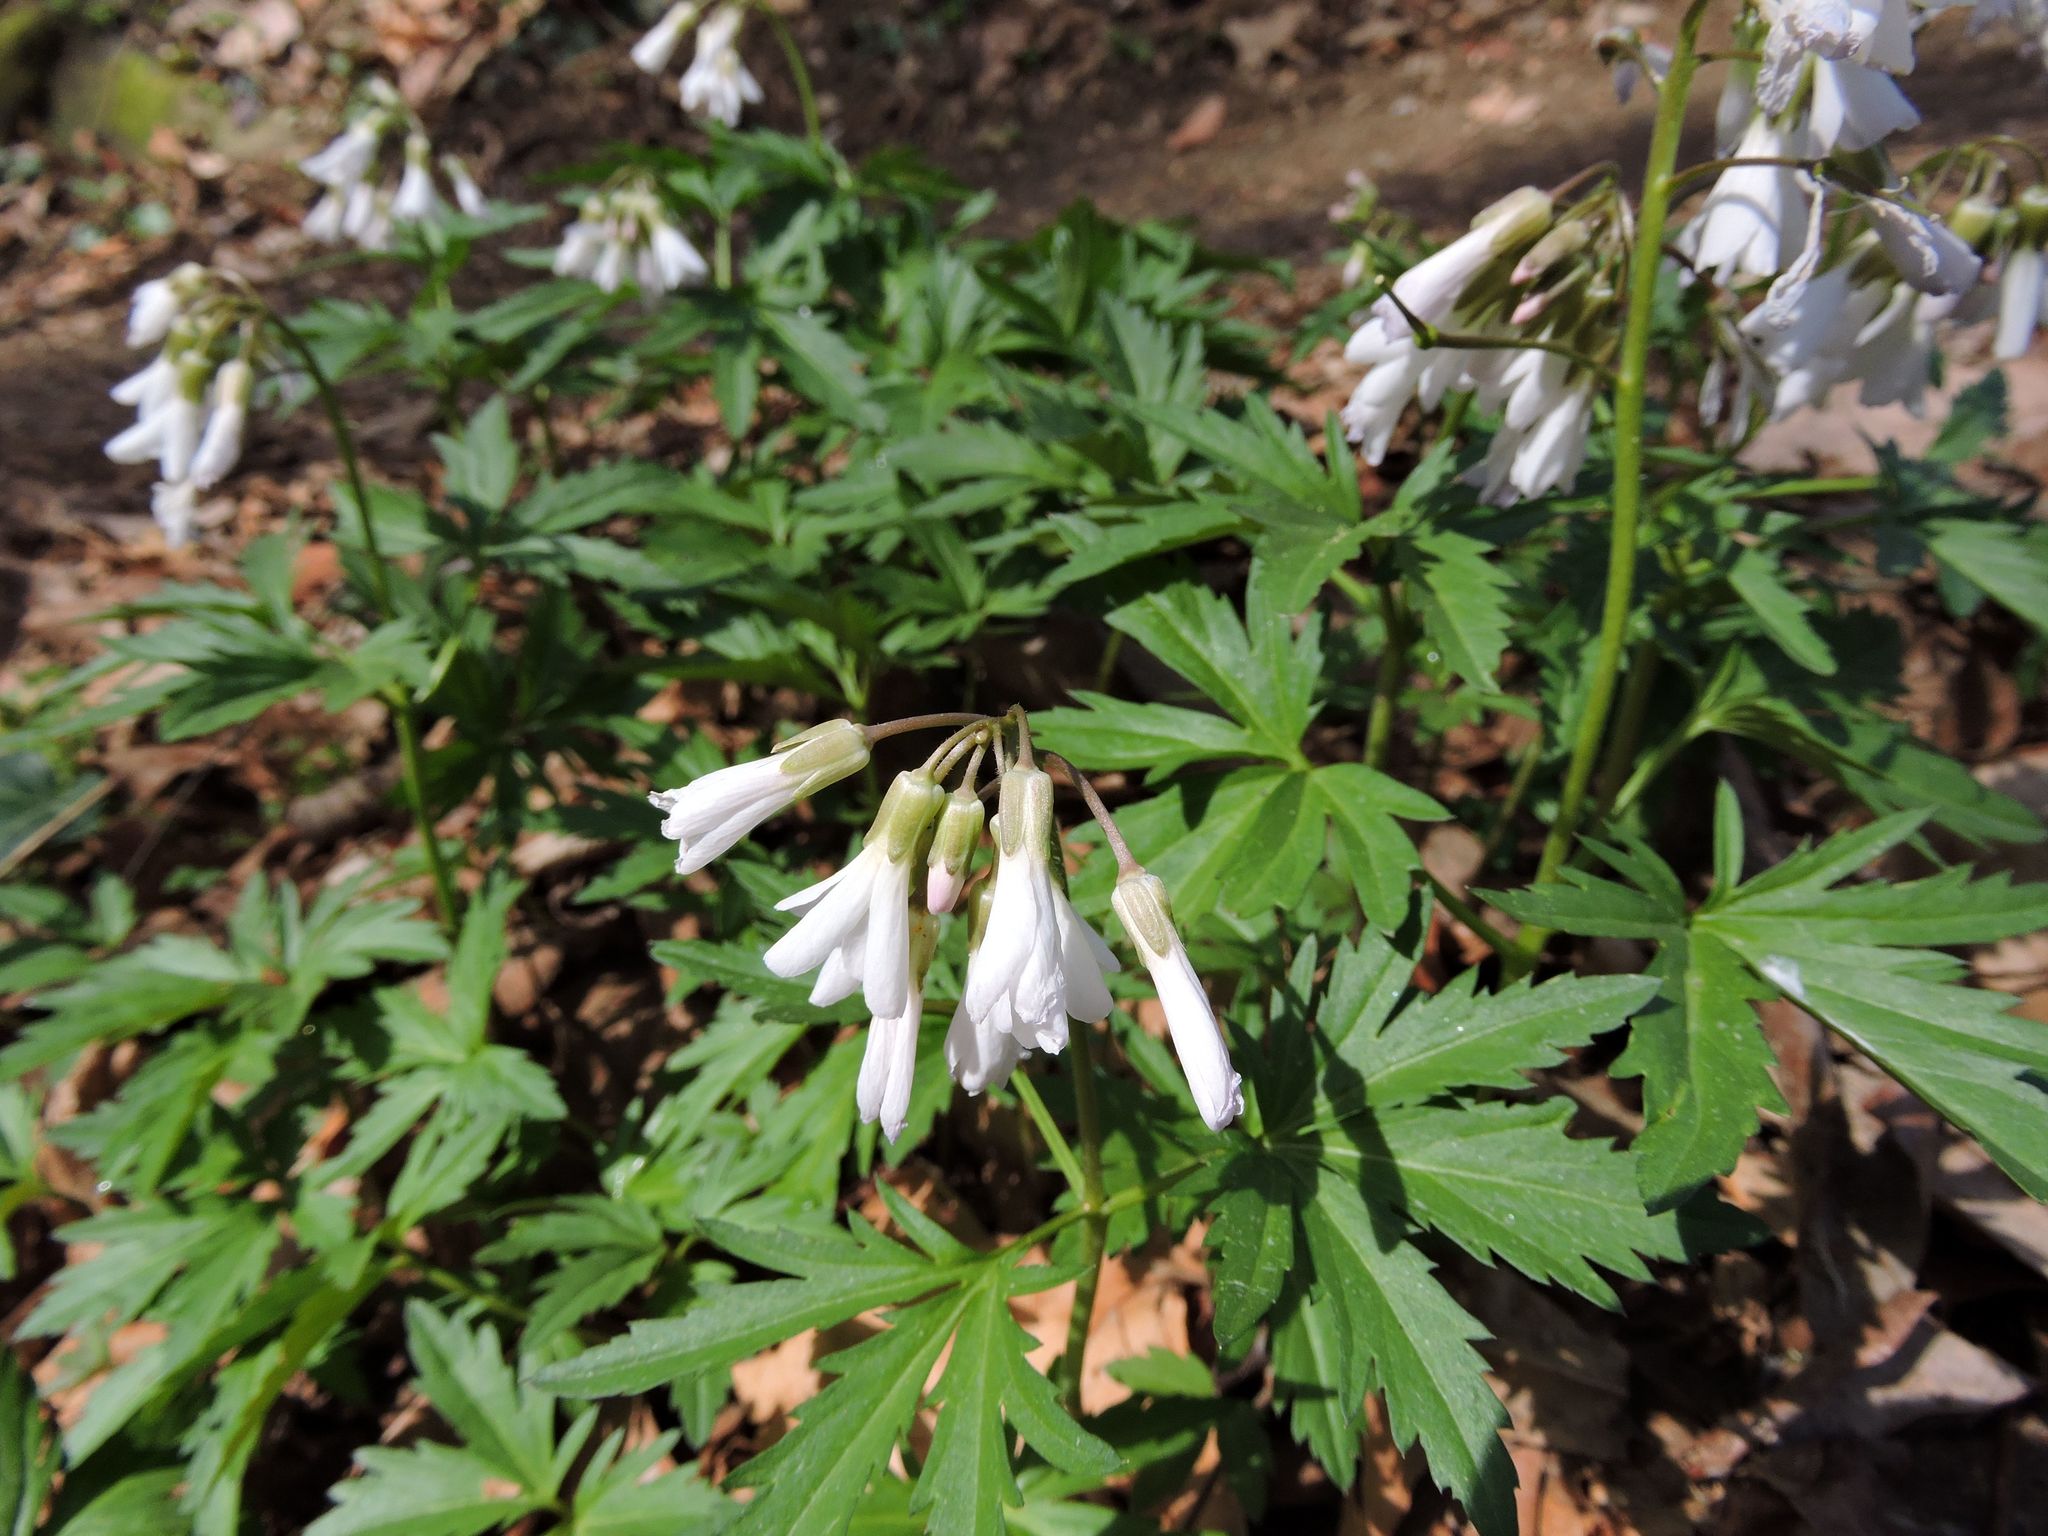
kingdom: Plantae
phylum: Tracheophyta
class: Magnoliopsida
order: Brassicales
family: Brassicaceae
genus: Cardamine
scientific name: Cardamine concatenata
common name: Cut-leaf toothcup
